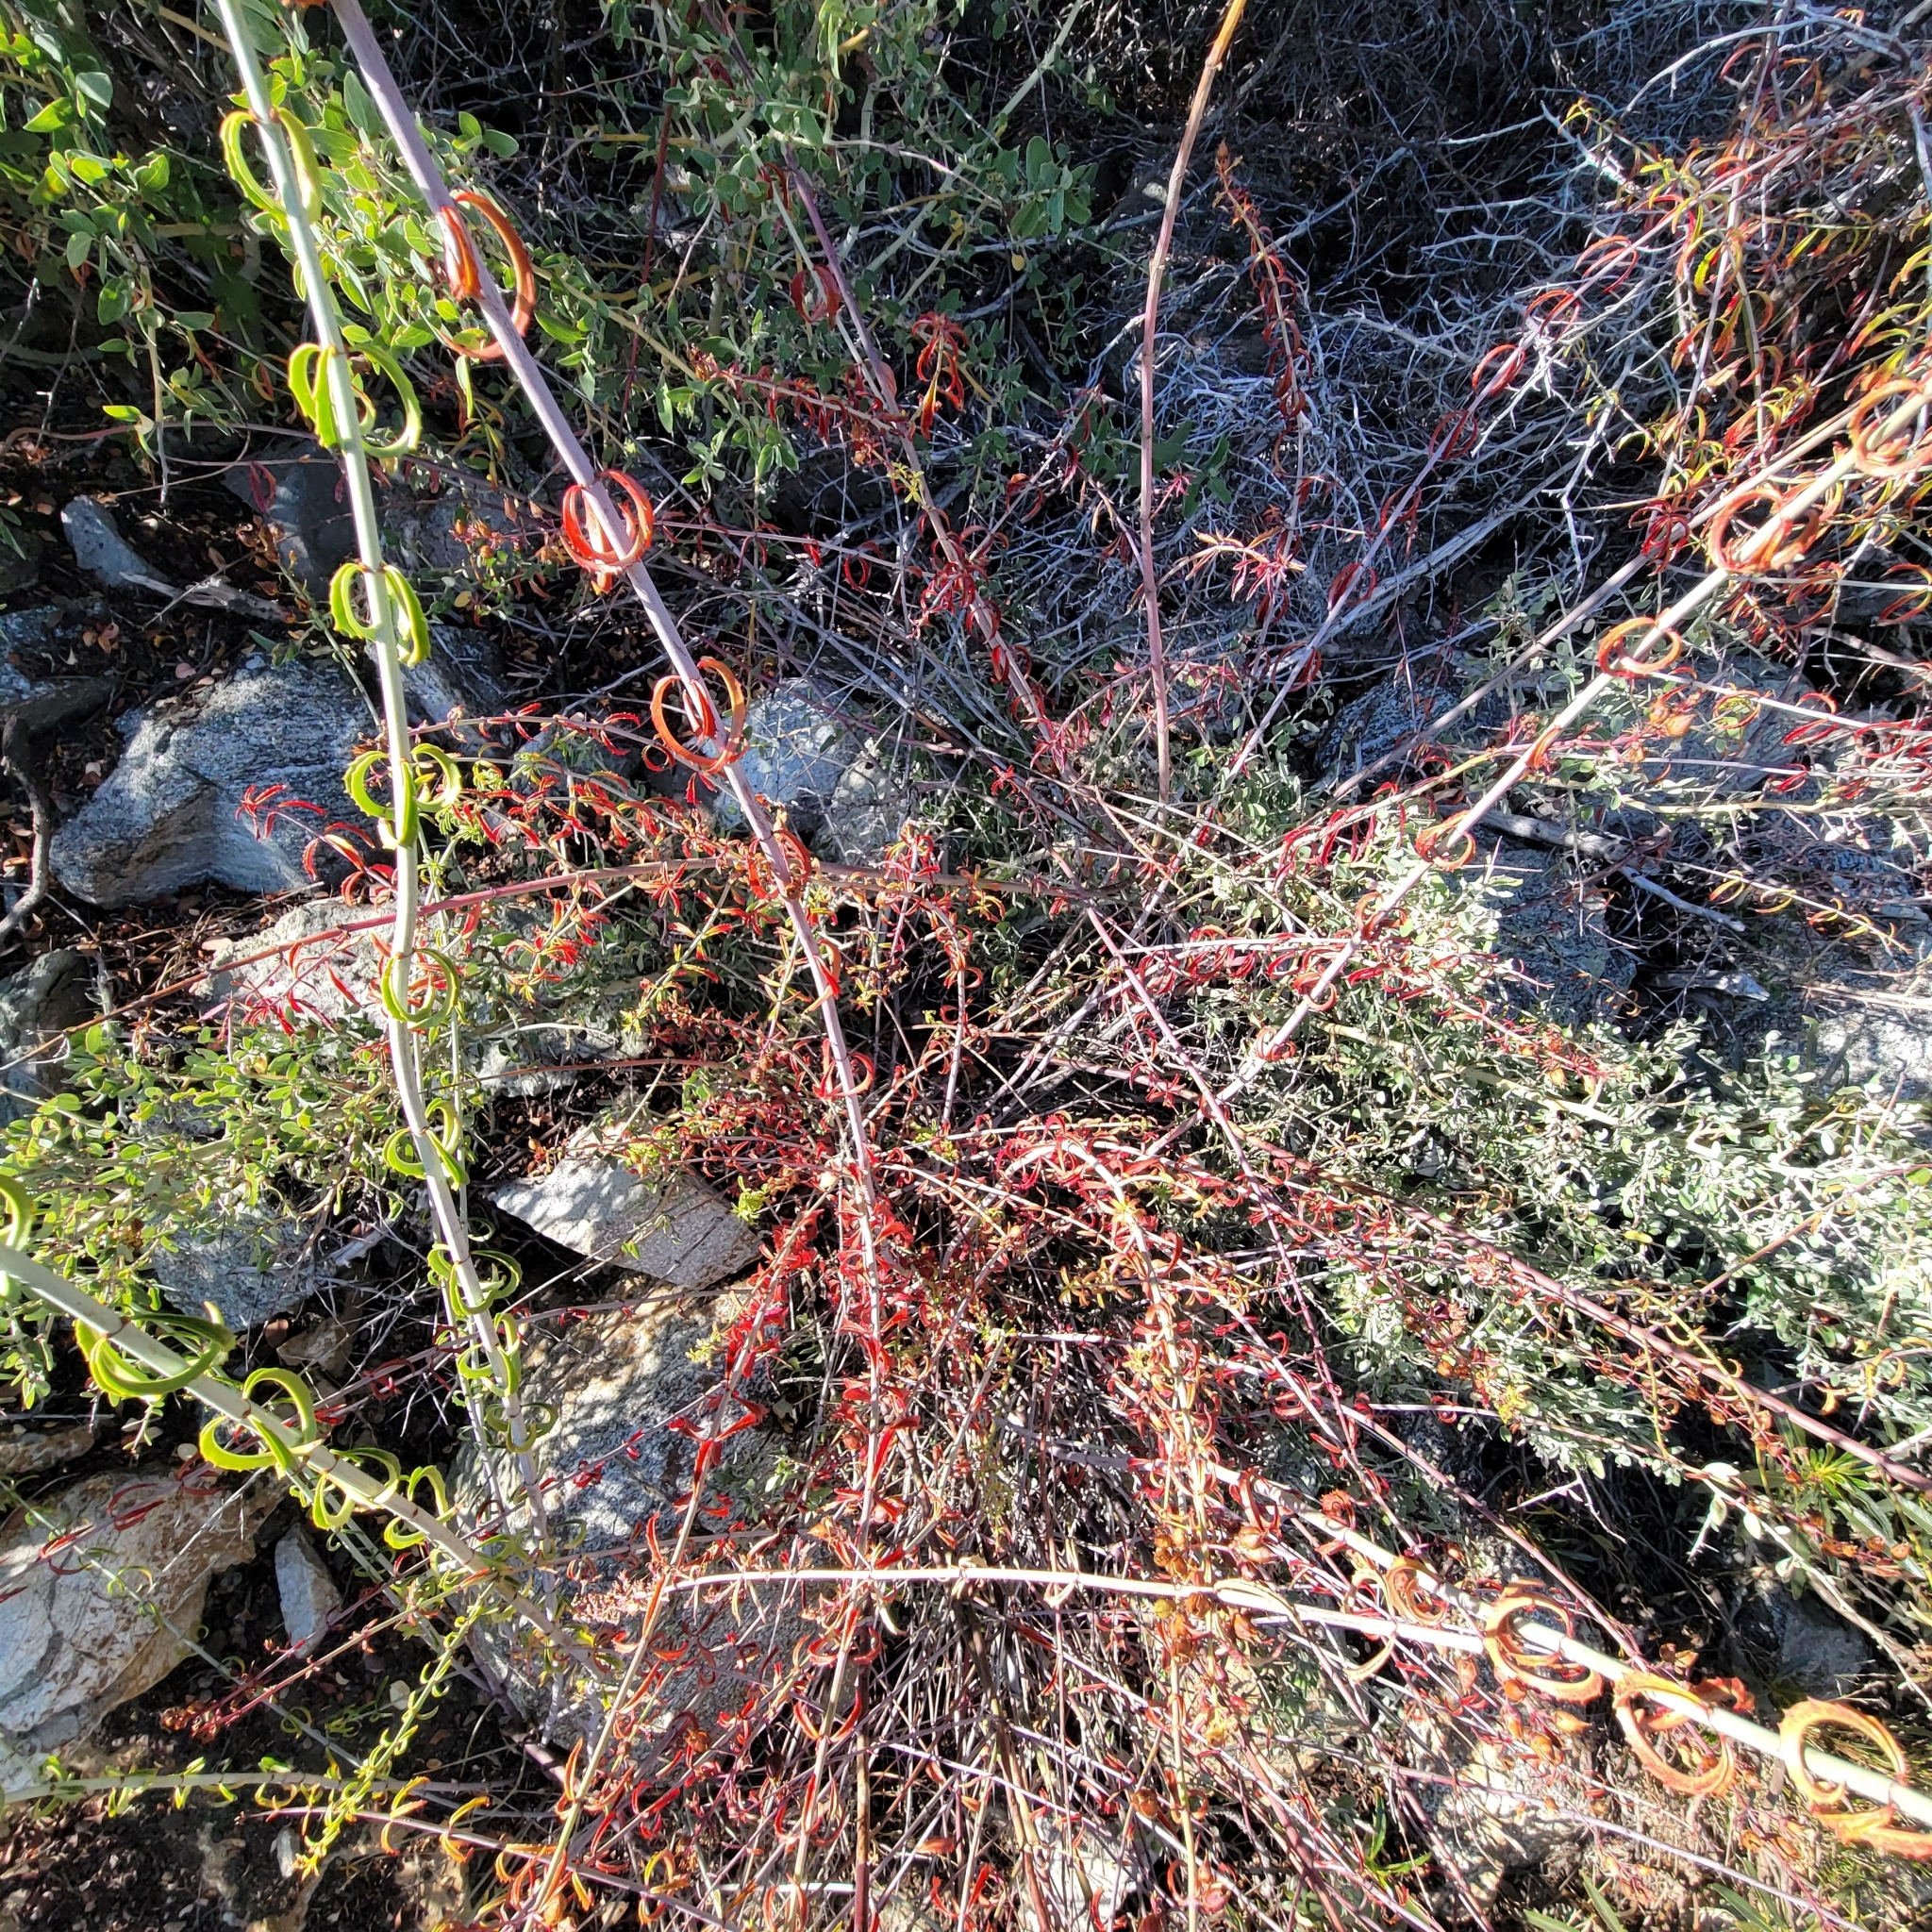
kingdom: Plantae
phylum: Tracheophyta
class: Magnoliopsida
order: Lamiales
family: Plantaginaceae
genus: Keckiella
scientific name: Keckiella ternata
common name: Scarlet keckiella
